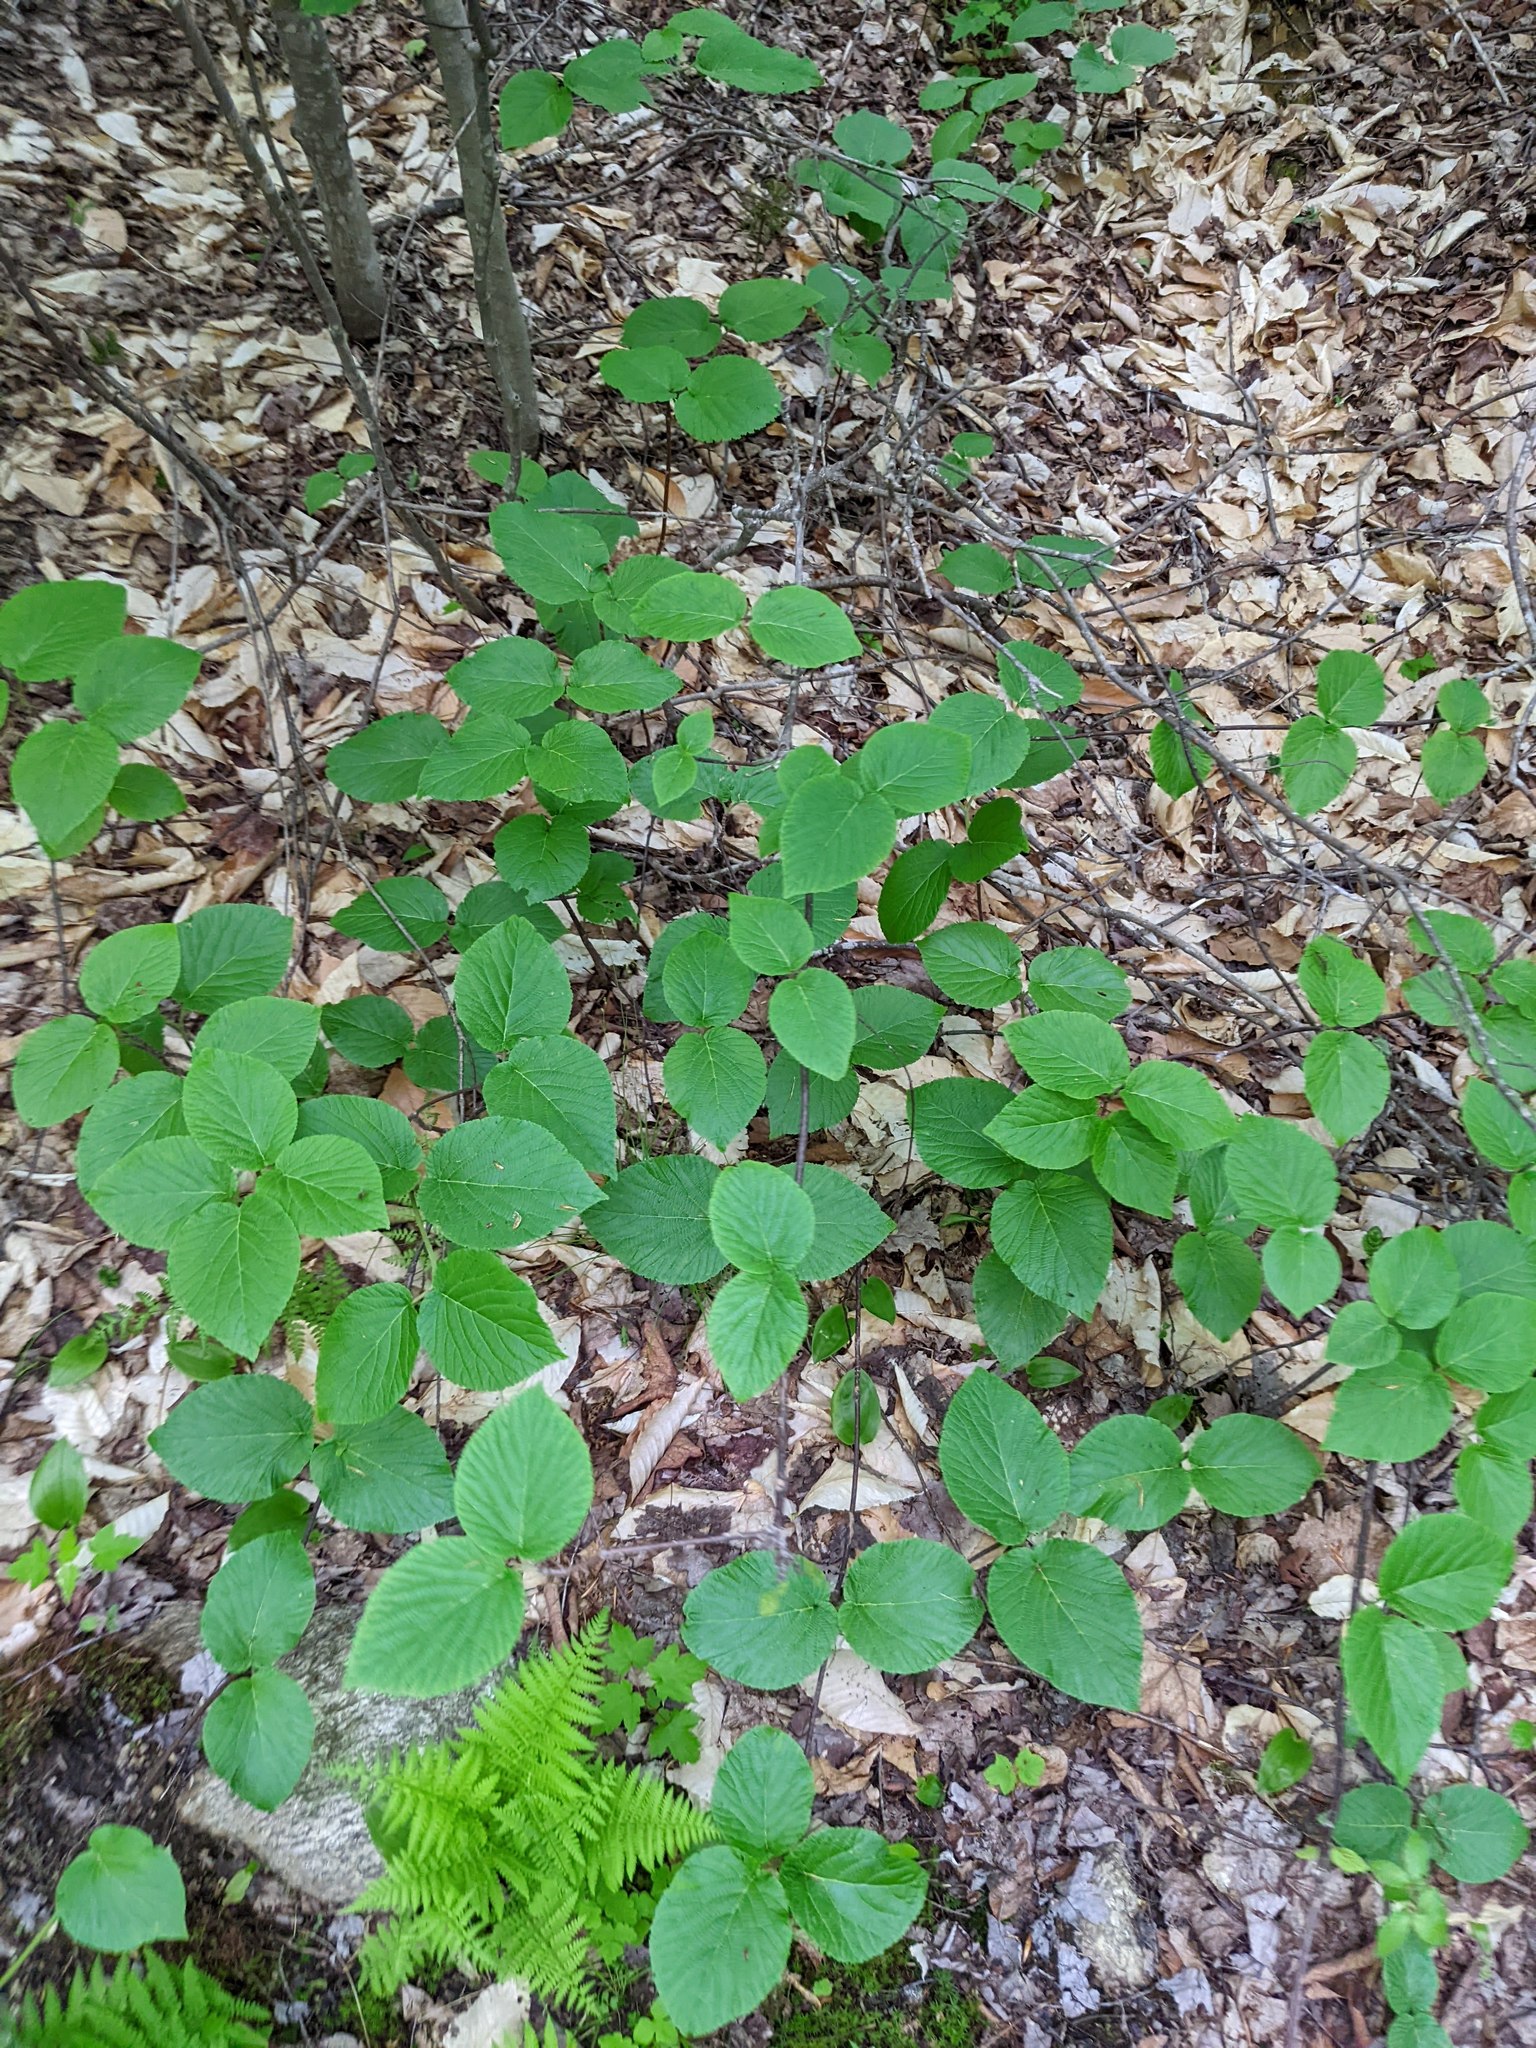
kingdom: Plantae
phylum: Tracheophyta
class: Magnoliopsida
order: Dipsacales
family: Viburnaceae
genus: Viburnum
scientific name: Viburnum lantanoides
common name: Hobblebush
